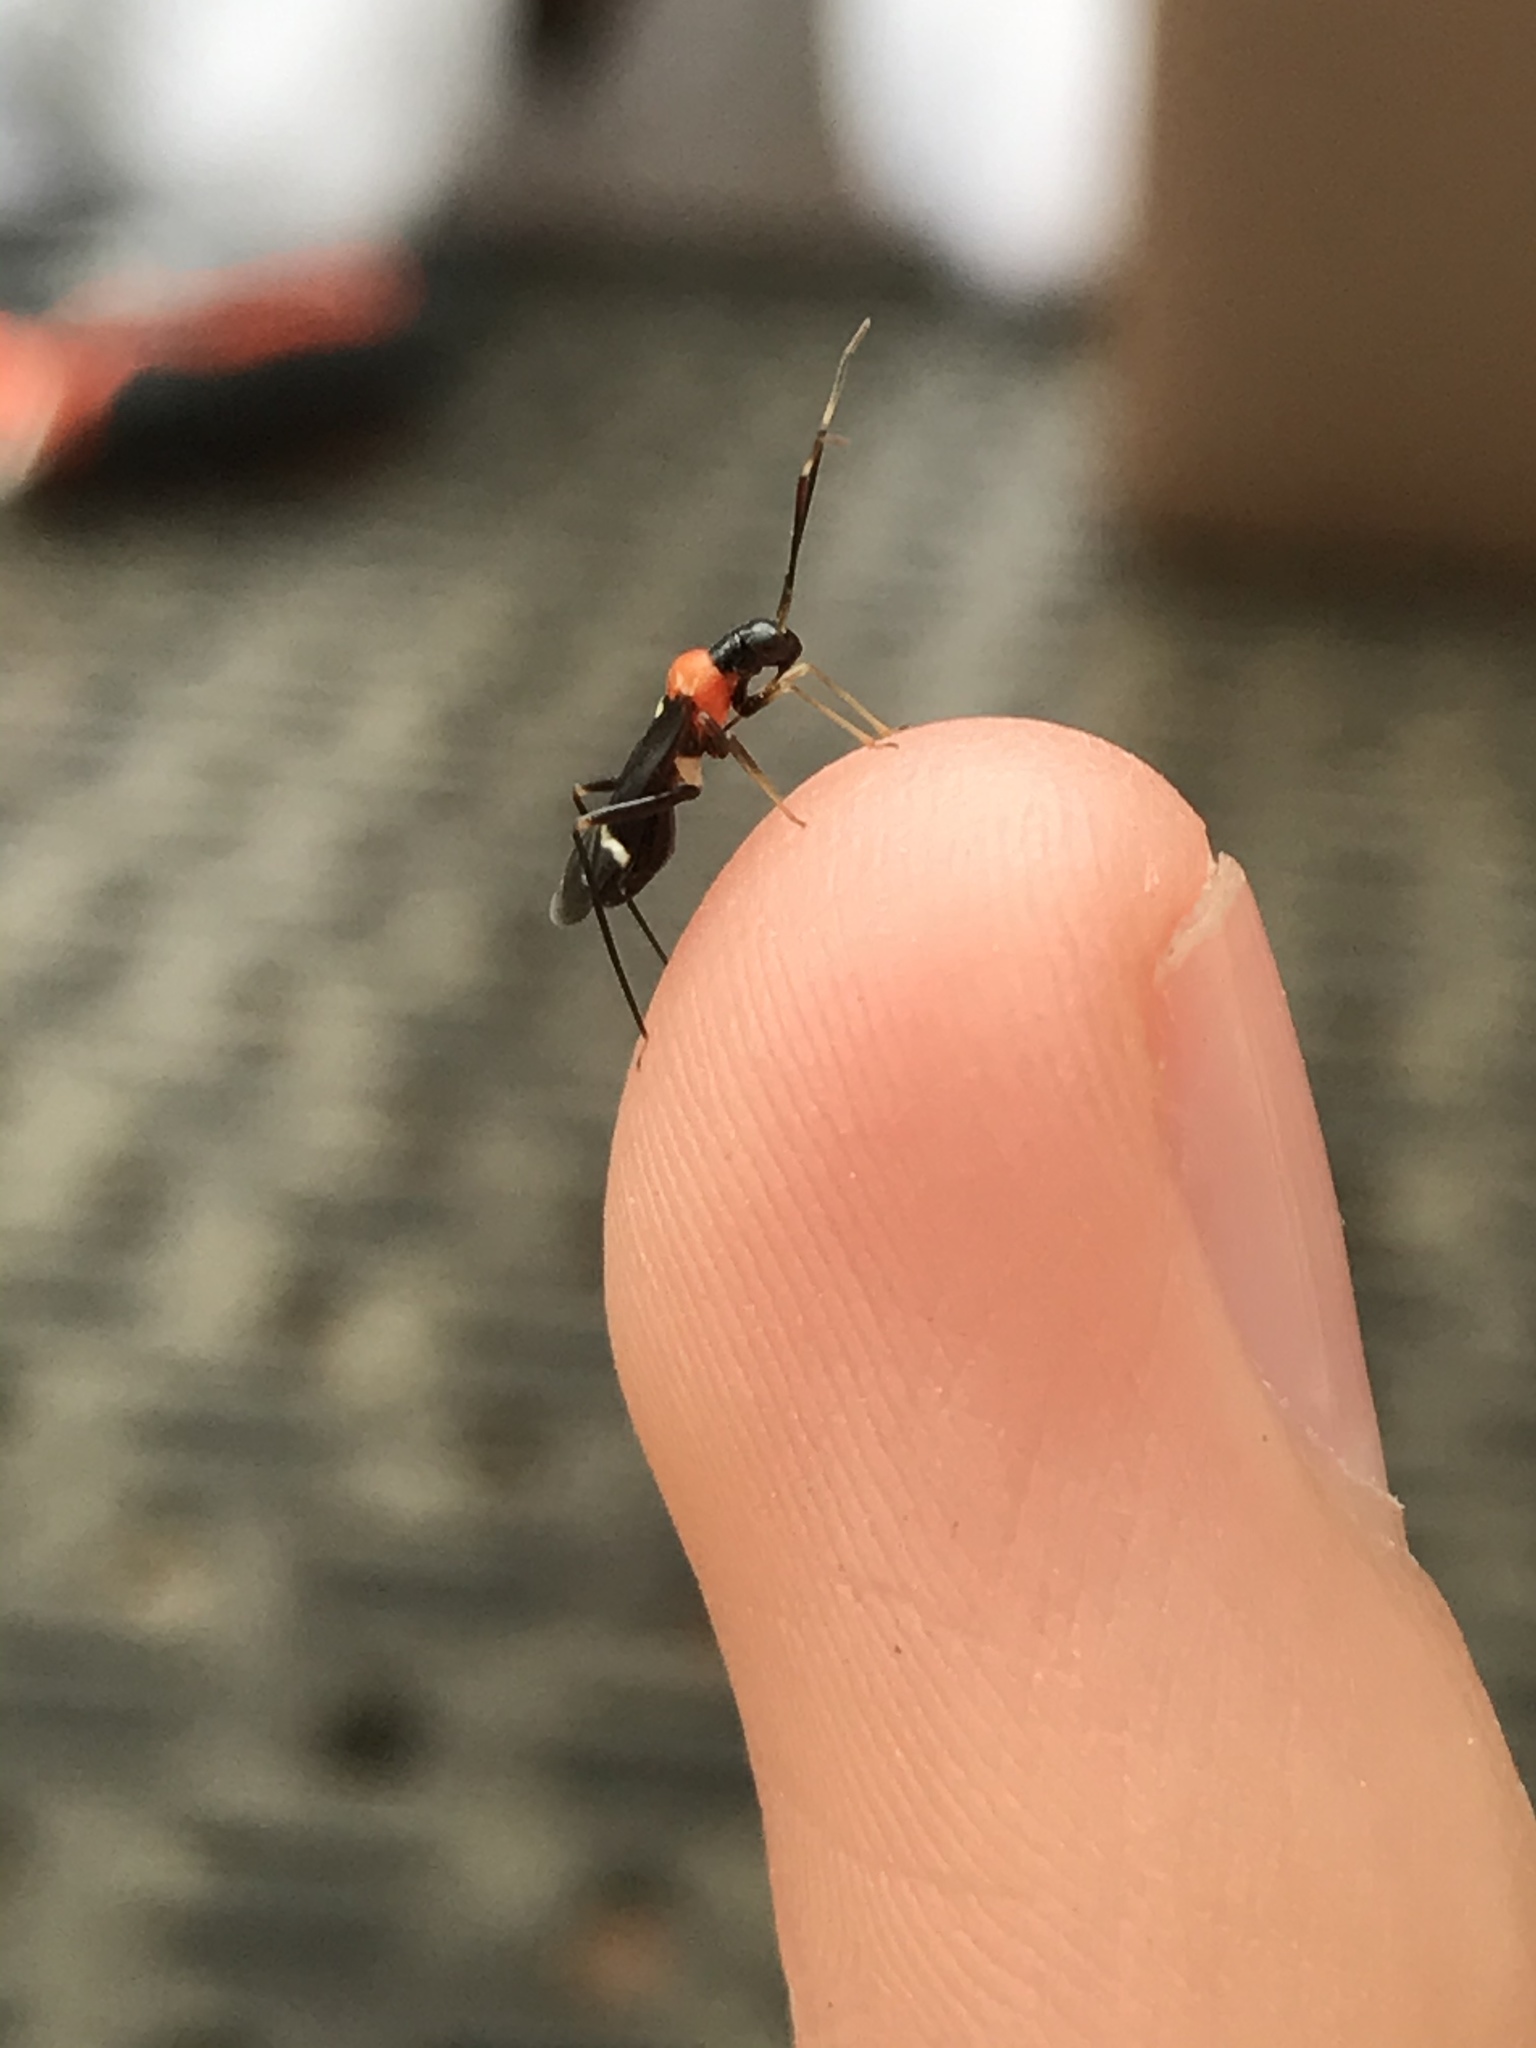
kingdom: Animalia
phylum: Arthropoda
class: Insecta
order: Hemiptera
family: Miridae
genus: Pseudoxenetus
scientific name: Pseudoxenetus regalis
